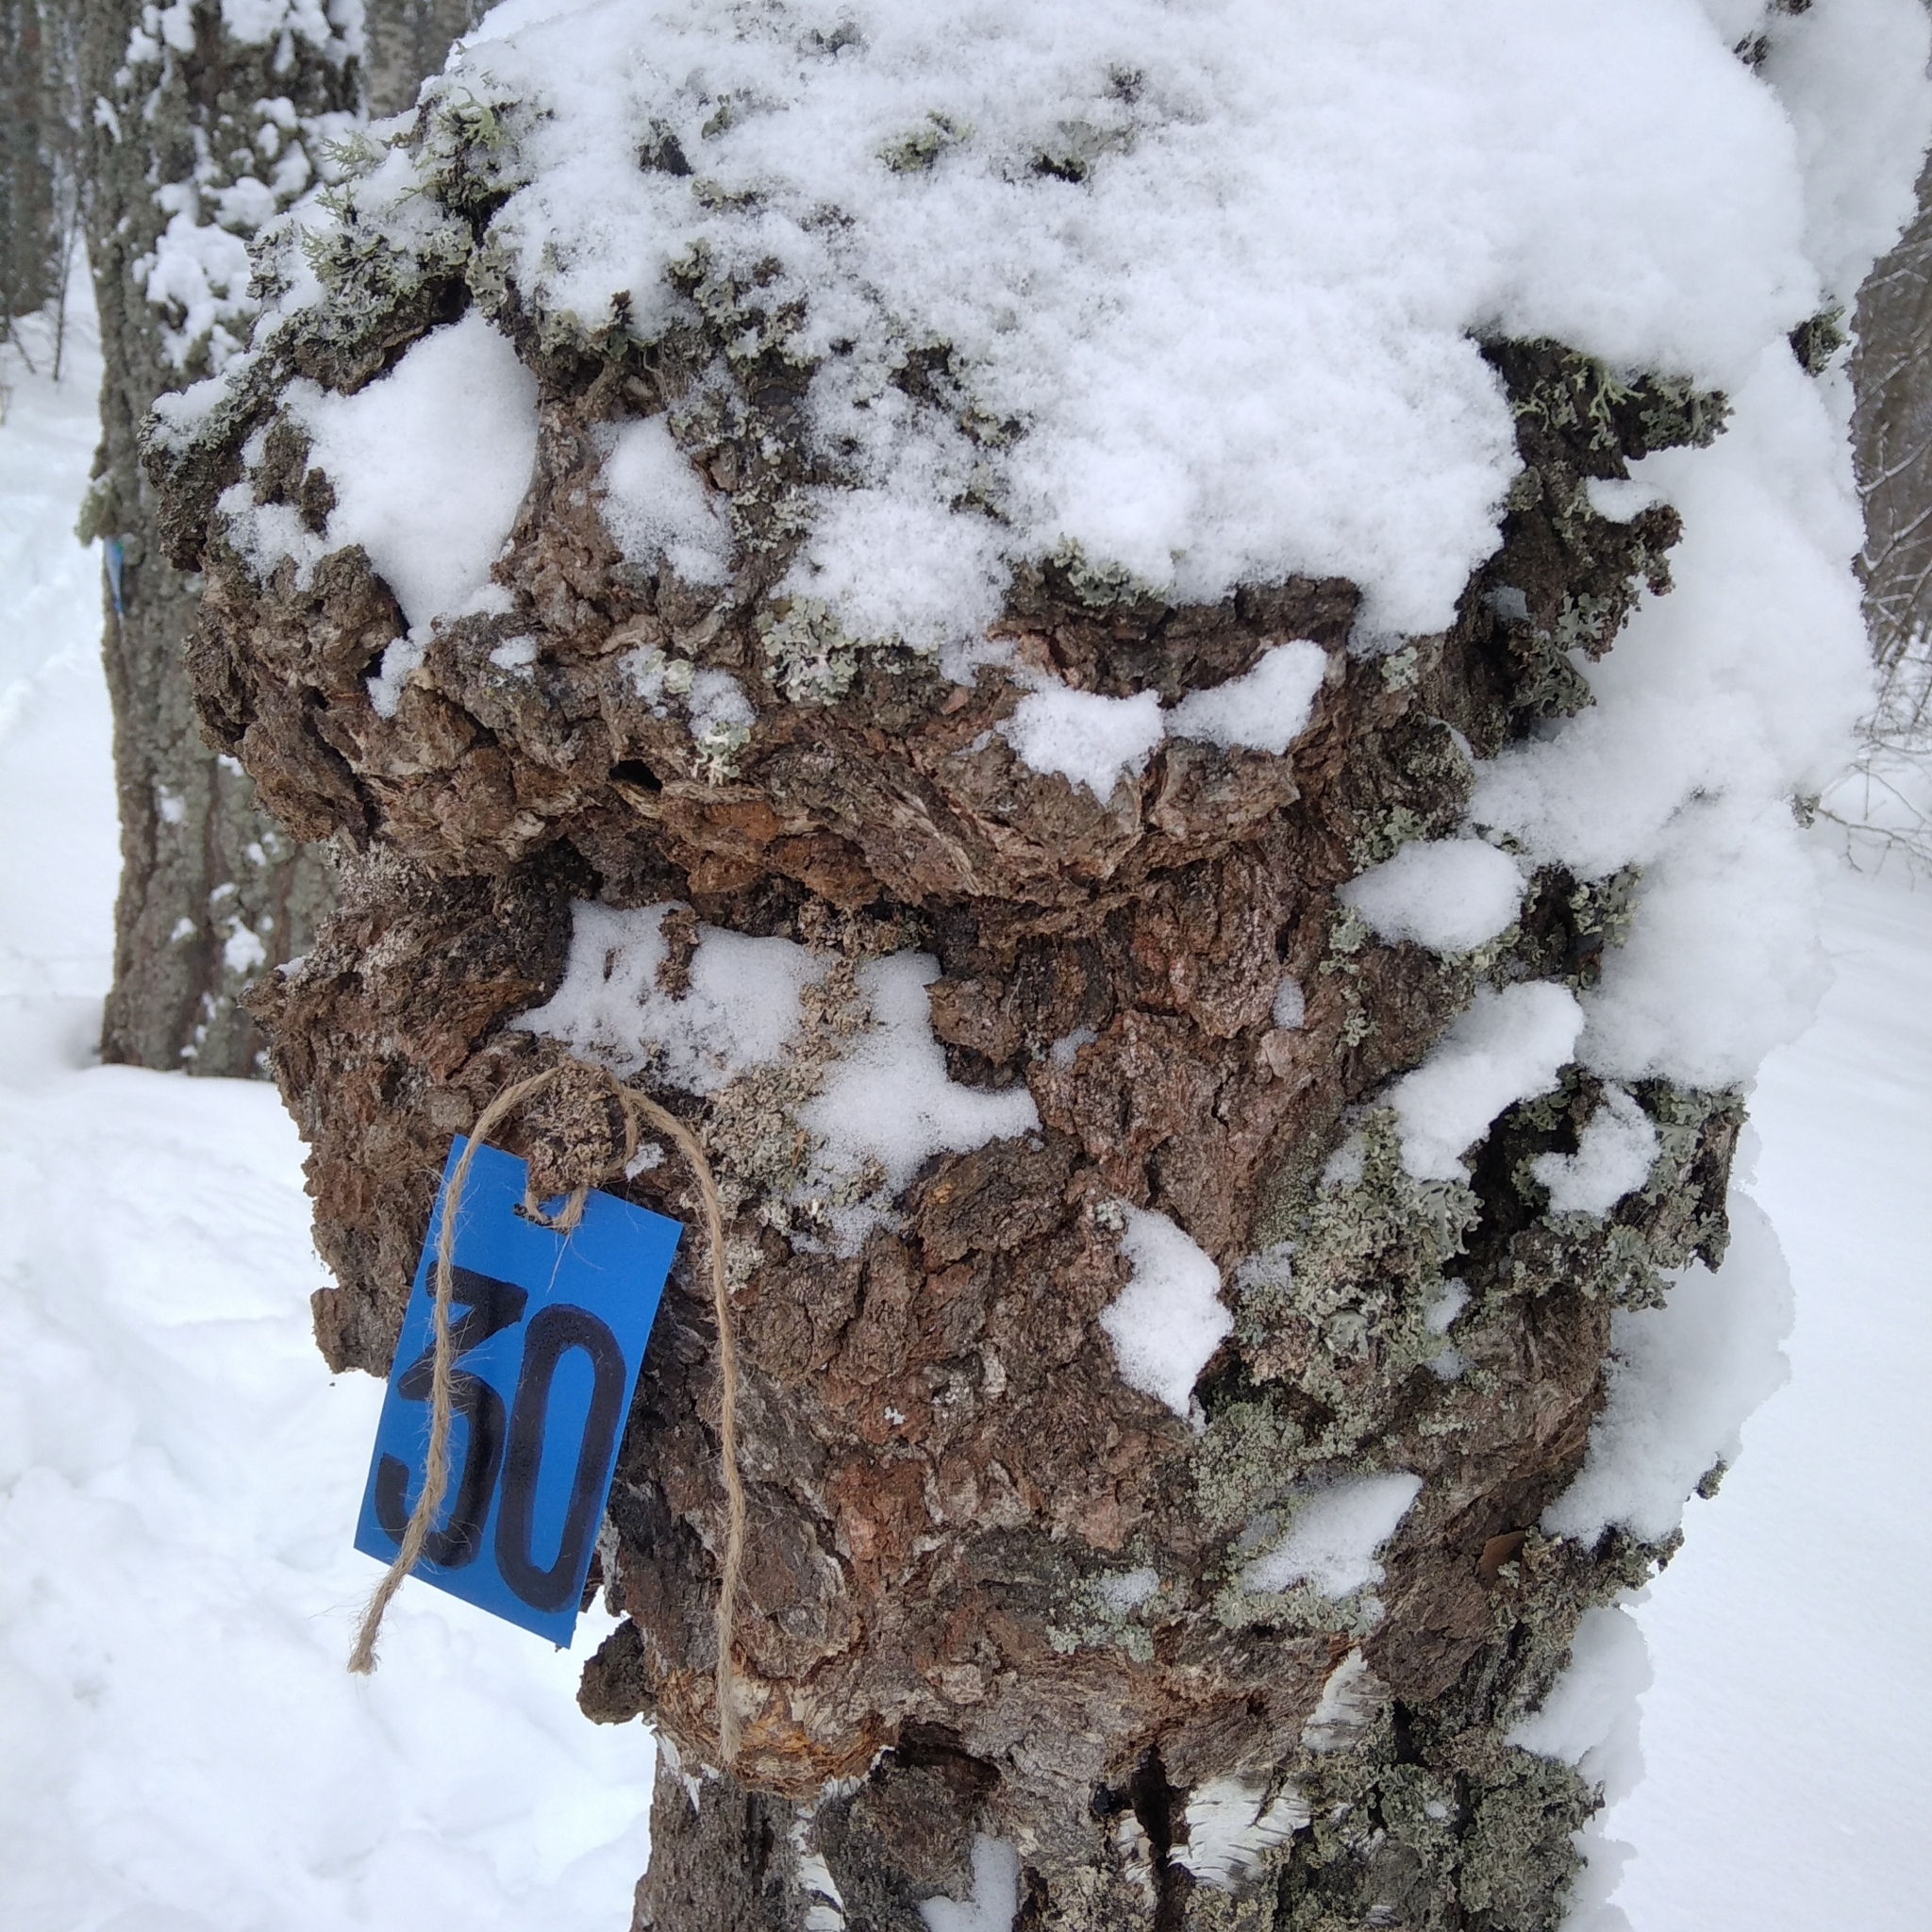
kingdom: Bacteria
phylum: Proteobacteria
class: Alphaproteobacteria
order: Rhizobiales
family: Rhizobiaceae
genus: Rhizobium
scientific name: Rhizobium Agrobacterium radiobacter
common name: Bacterial crown gall
